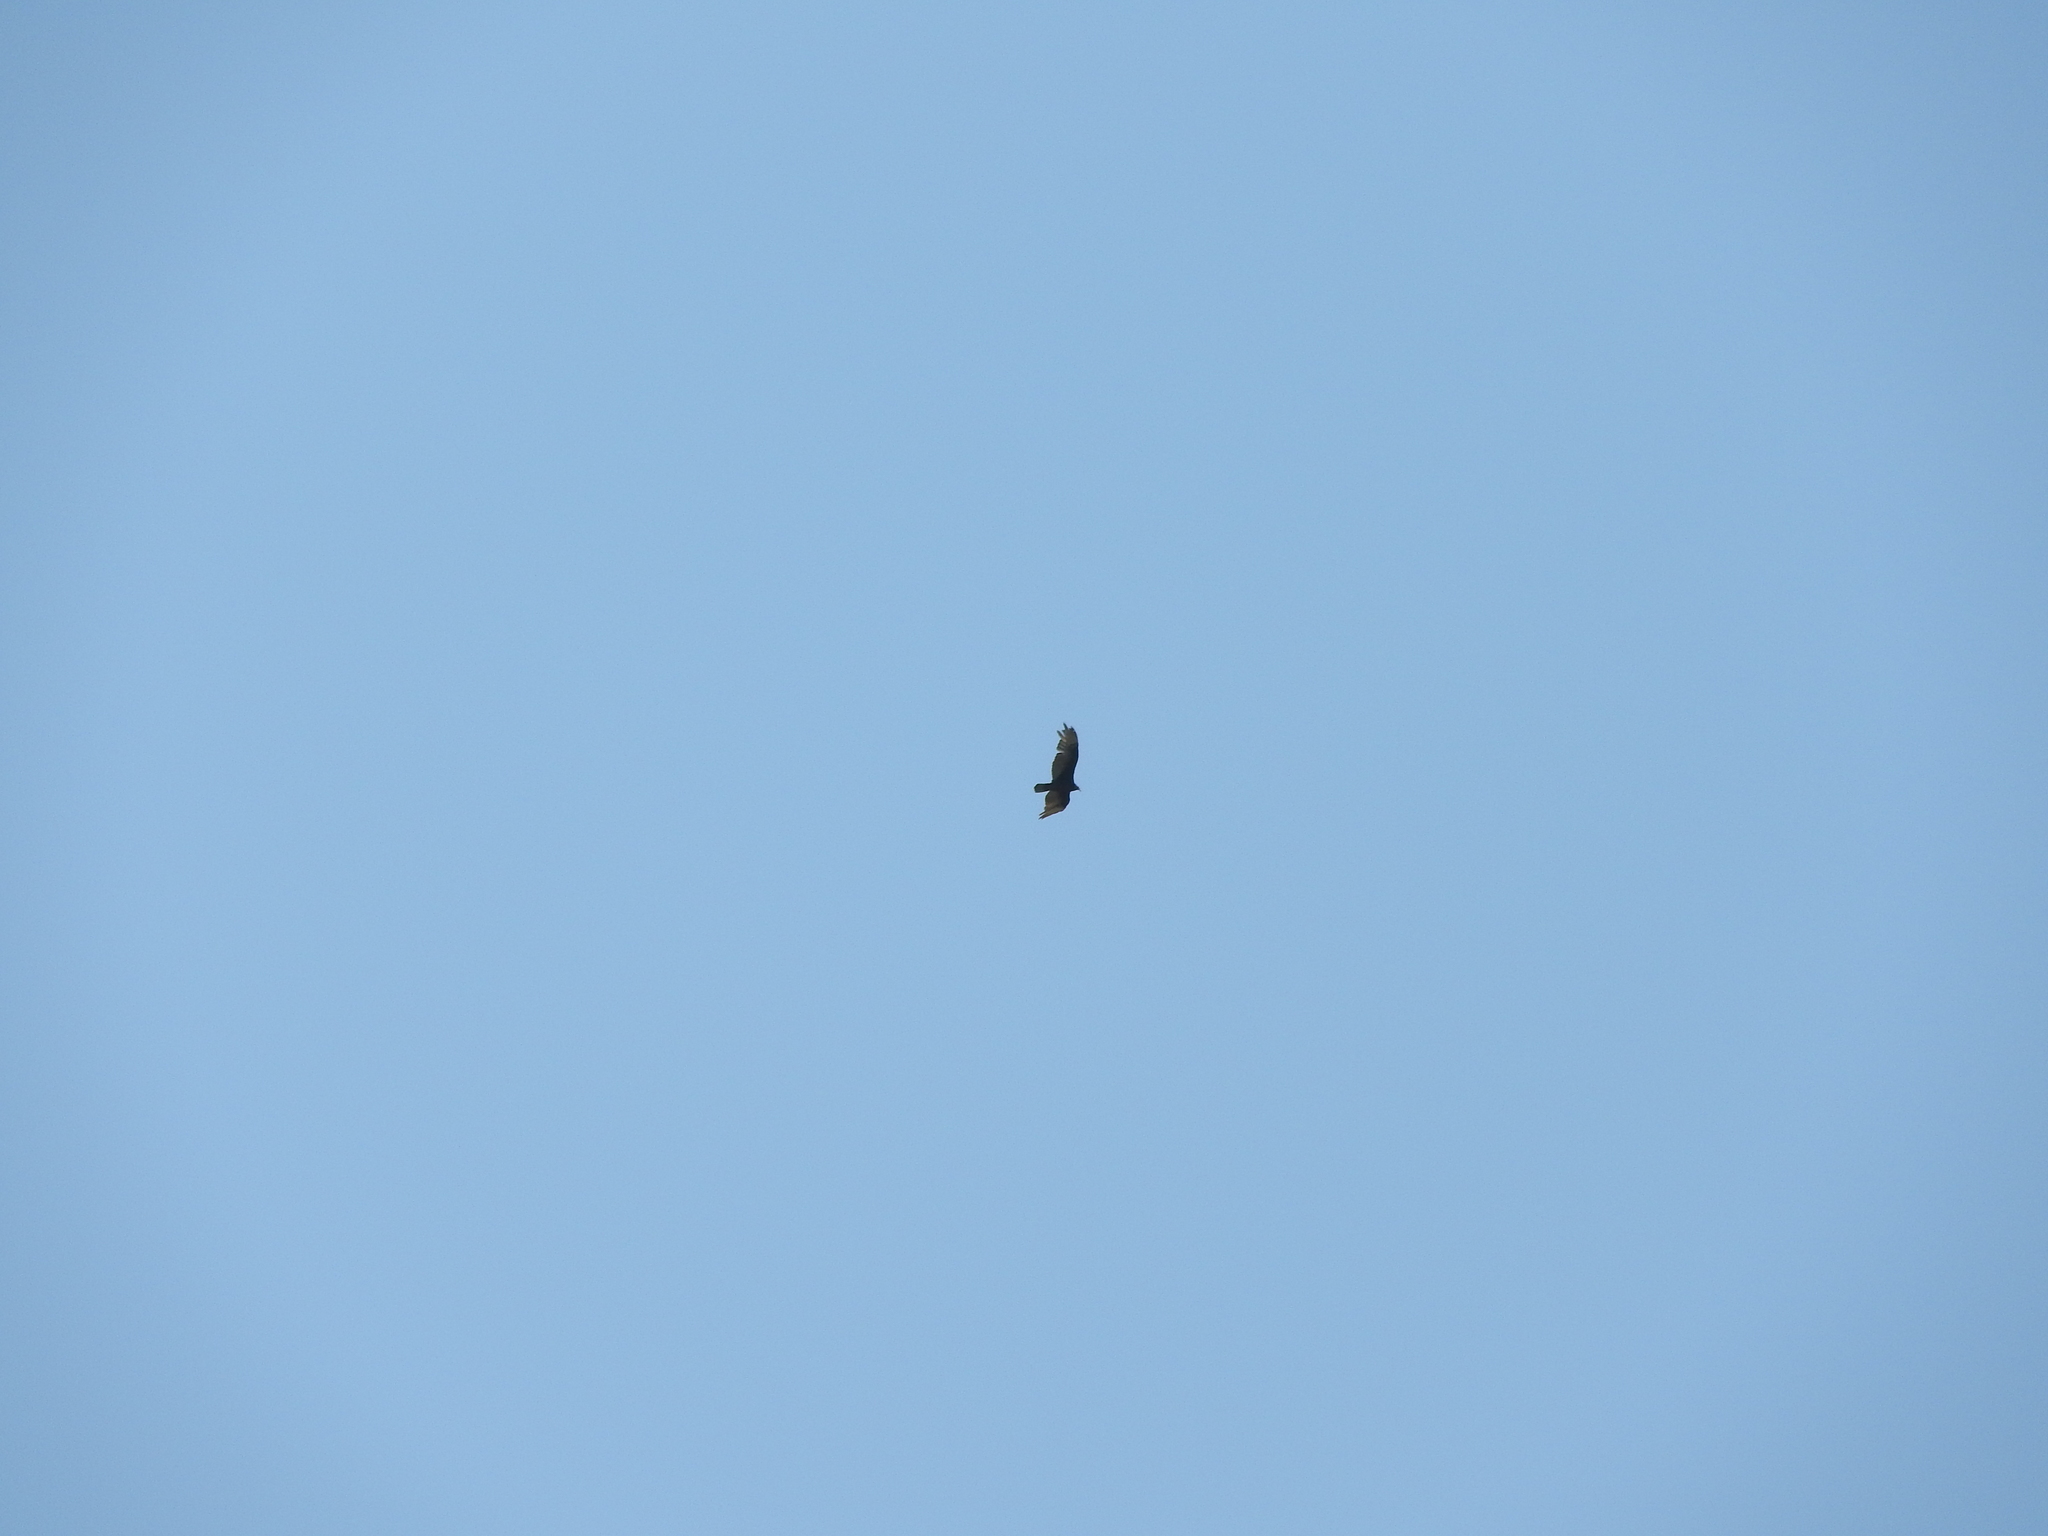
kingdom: Animalia
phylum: Chordata
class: Aves
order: Accipitriformes
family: Cathartidae
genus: Cathartes
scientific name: Cathartes aura
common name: Turkey vulture
